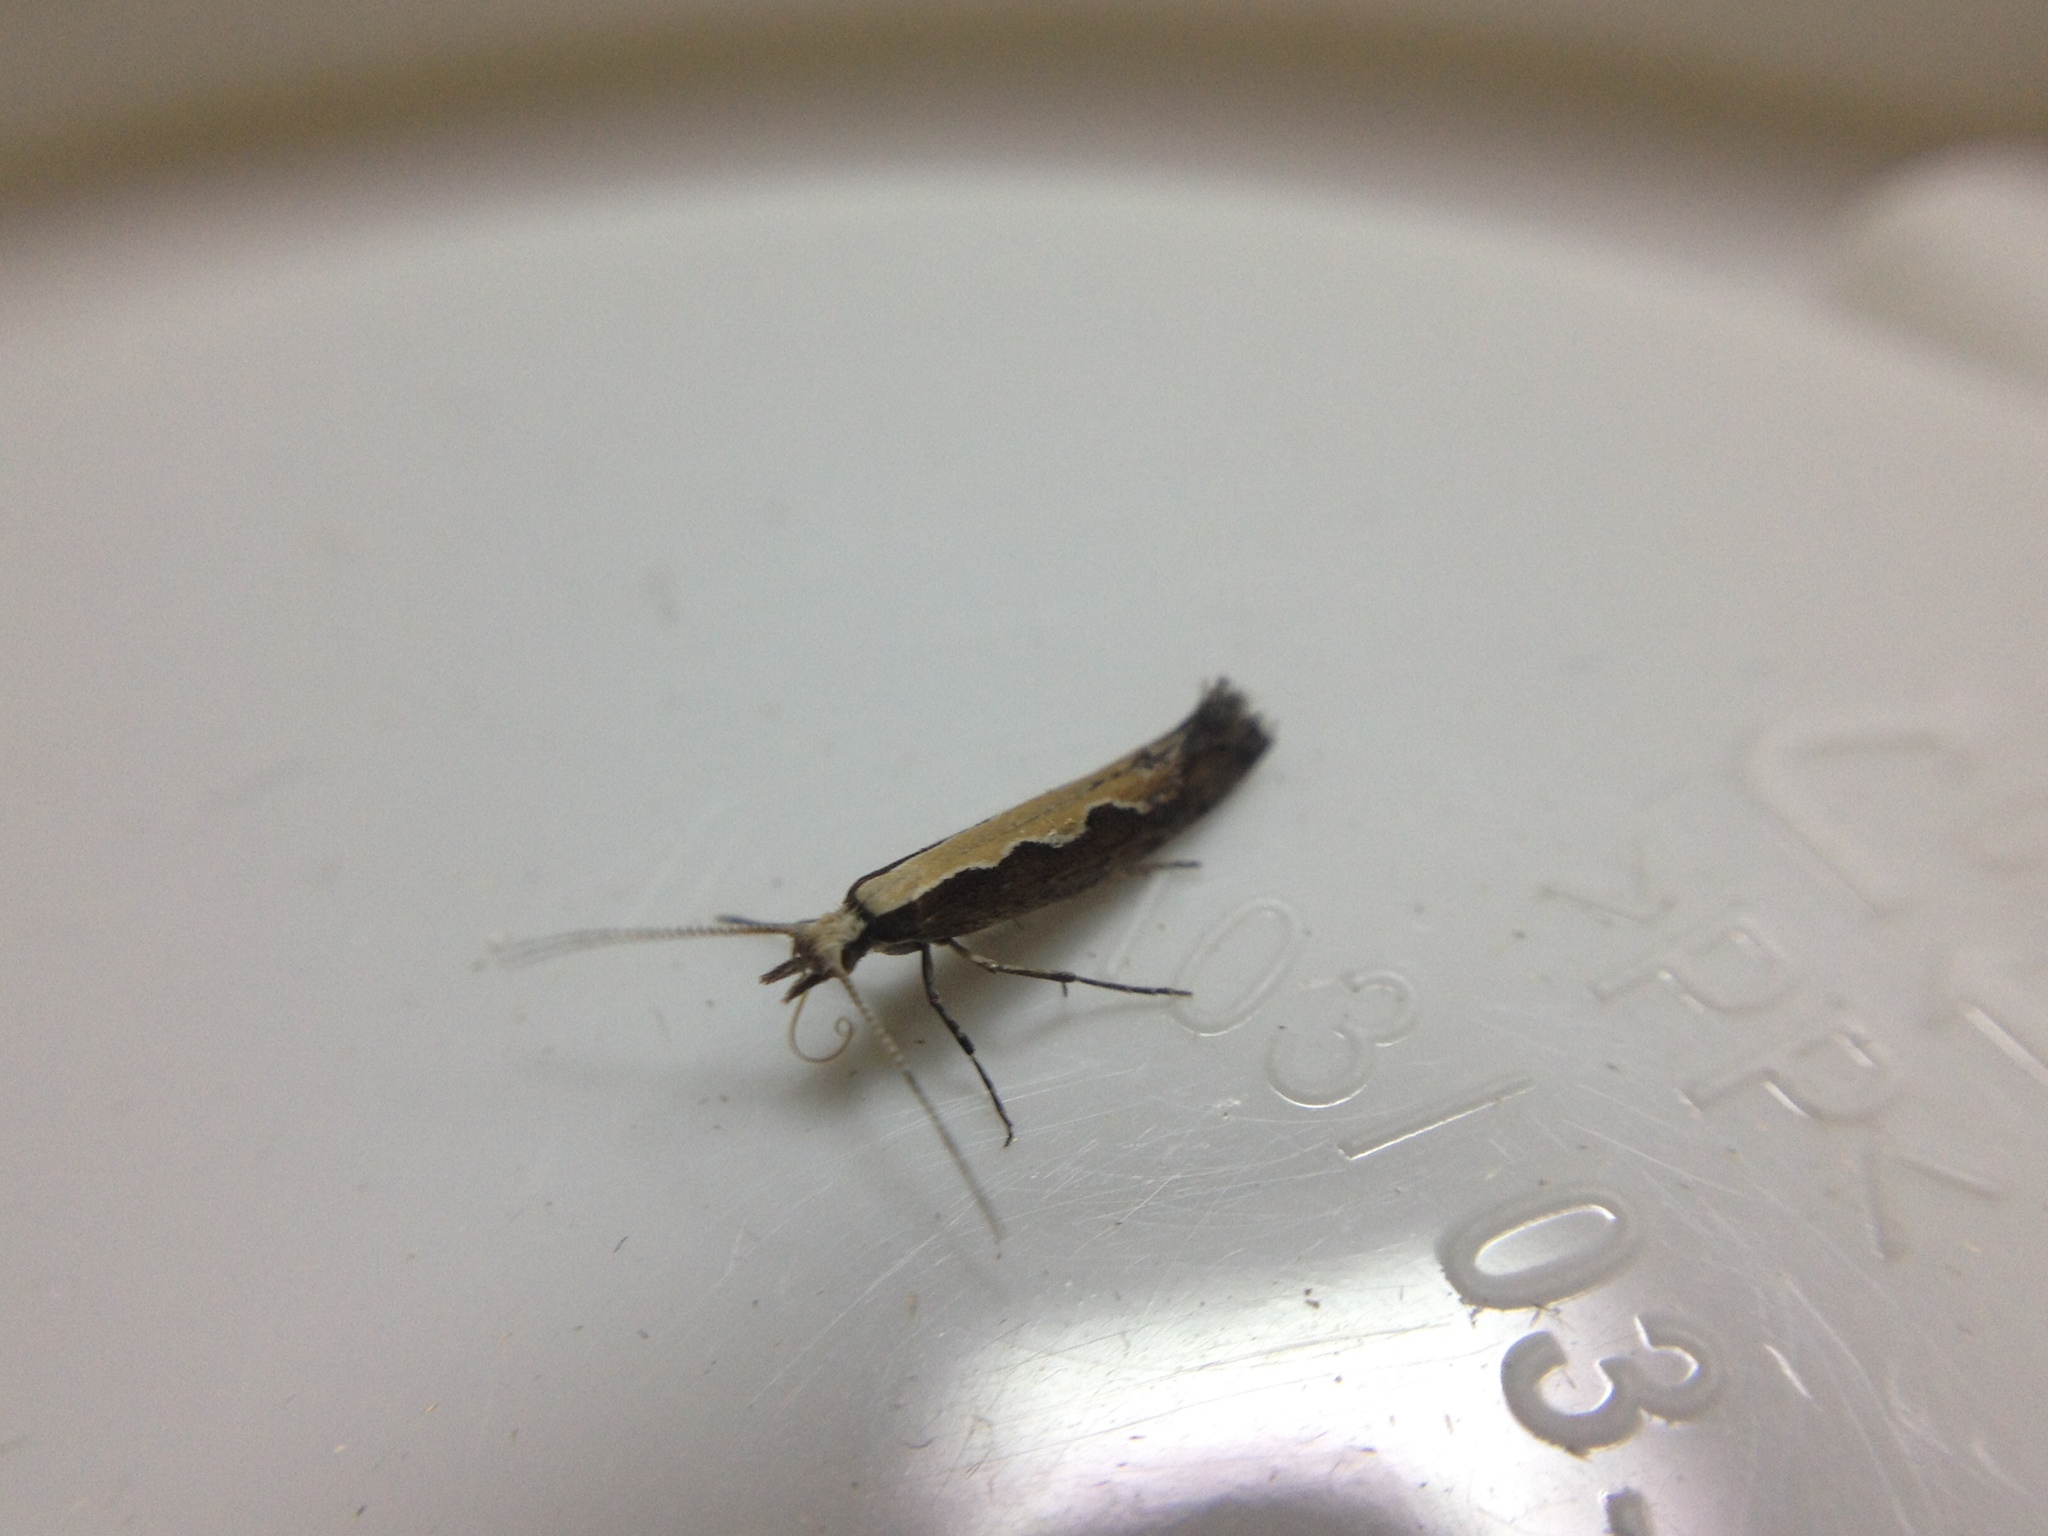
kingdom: Animalia
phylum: Arthropoda
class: Insecta
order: Lepidoptera
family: Plutellidae
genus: Plutella
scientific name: Plutella xylostella
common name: Diamond-back moth
